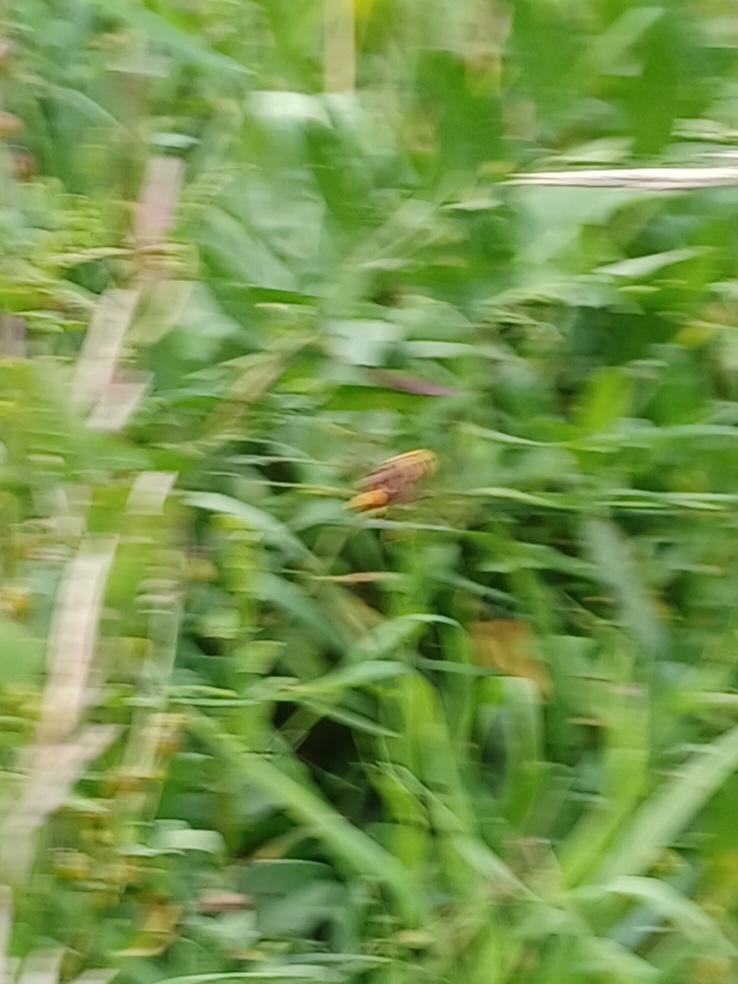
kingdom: Animalia
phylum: Arthropoda
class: Insecta
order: Hymenoptera
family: Vespidae
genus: Vespa
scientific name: Vespa crabro
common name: Hornet
